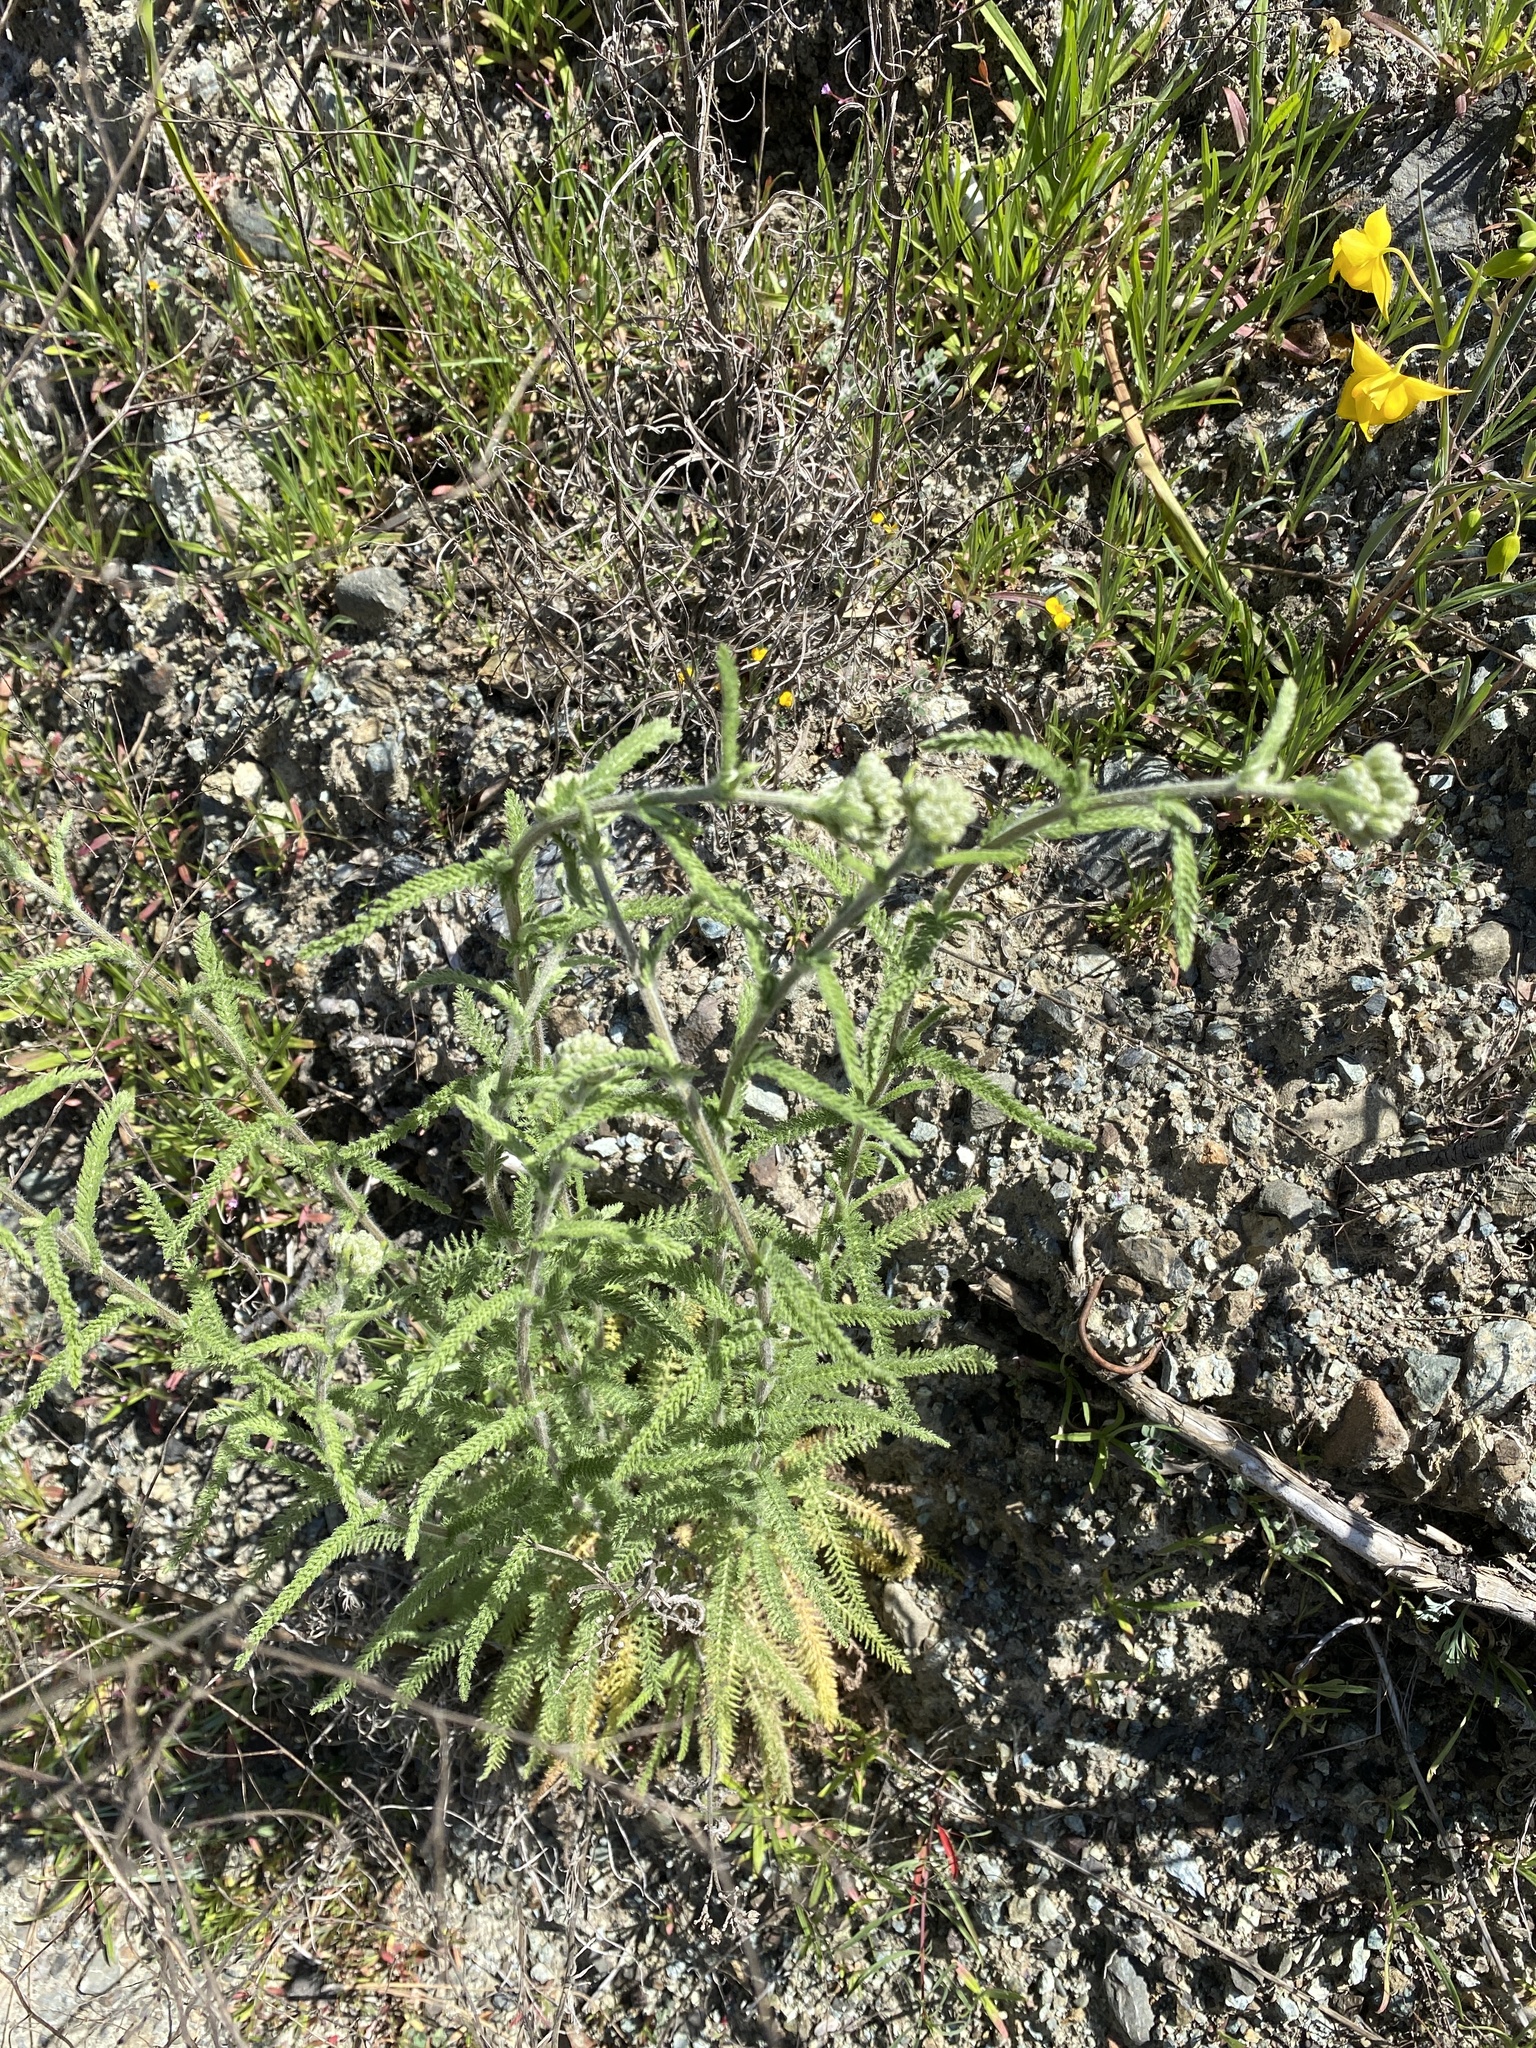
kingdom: Plantae
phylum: Tracheophyta
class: Magnoliopsida
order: Asterales
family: Asteraceae
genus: Achillea
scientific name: Achillea millefolium
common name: Yarrow
